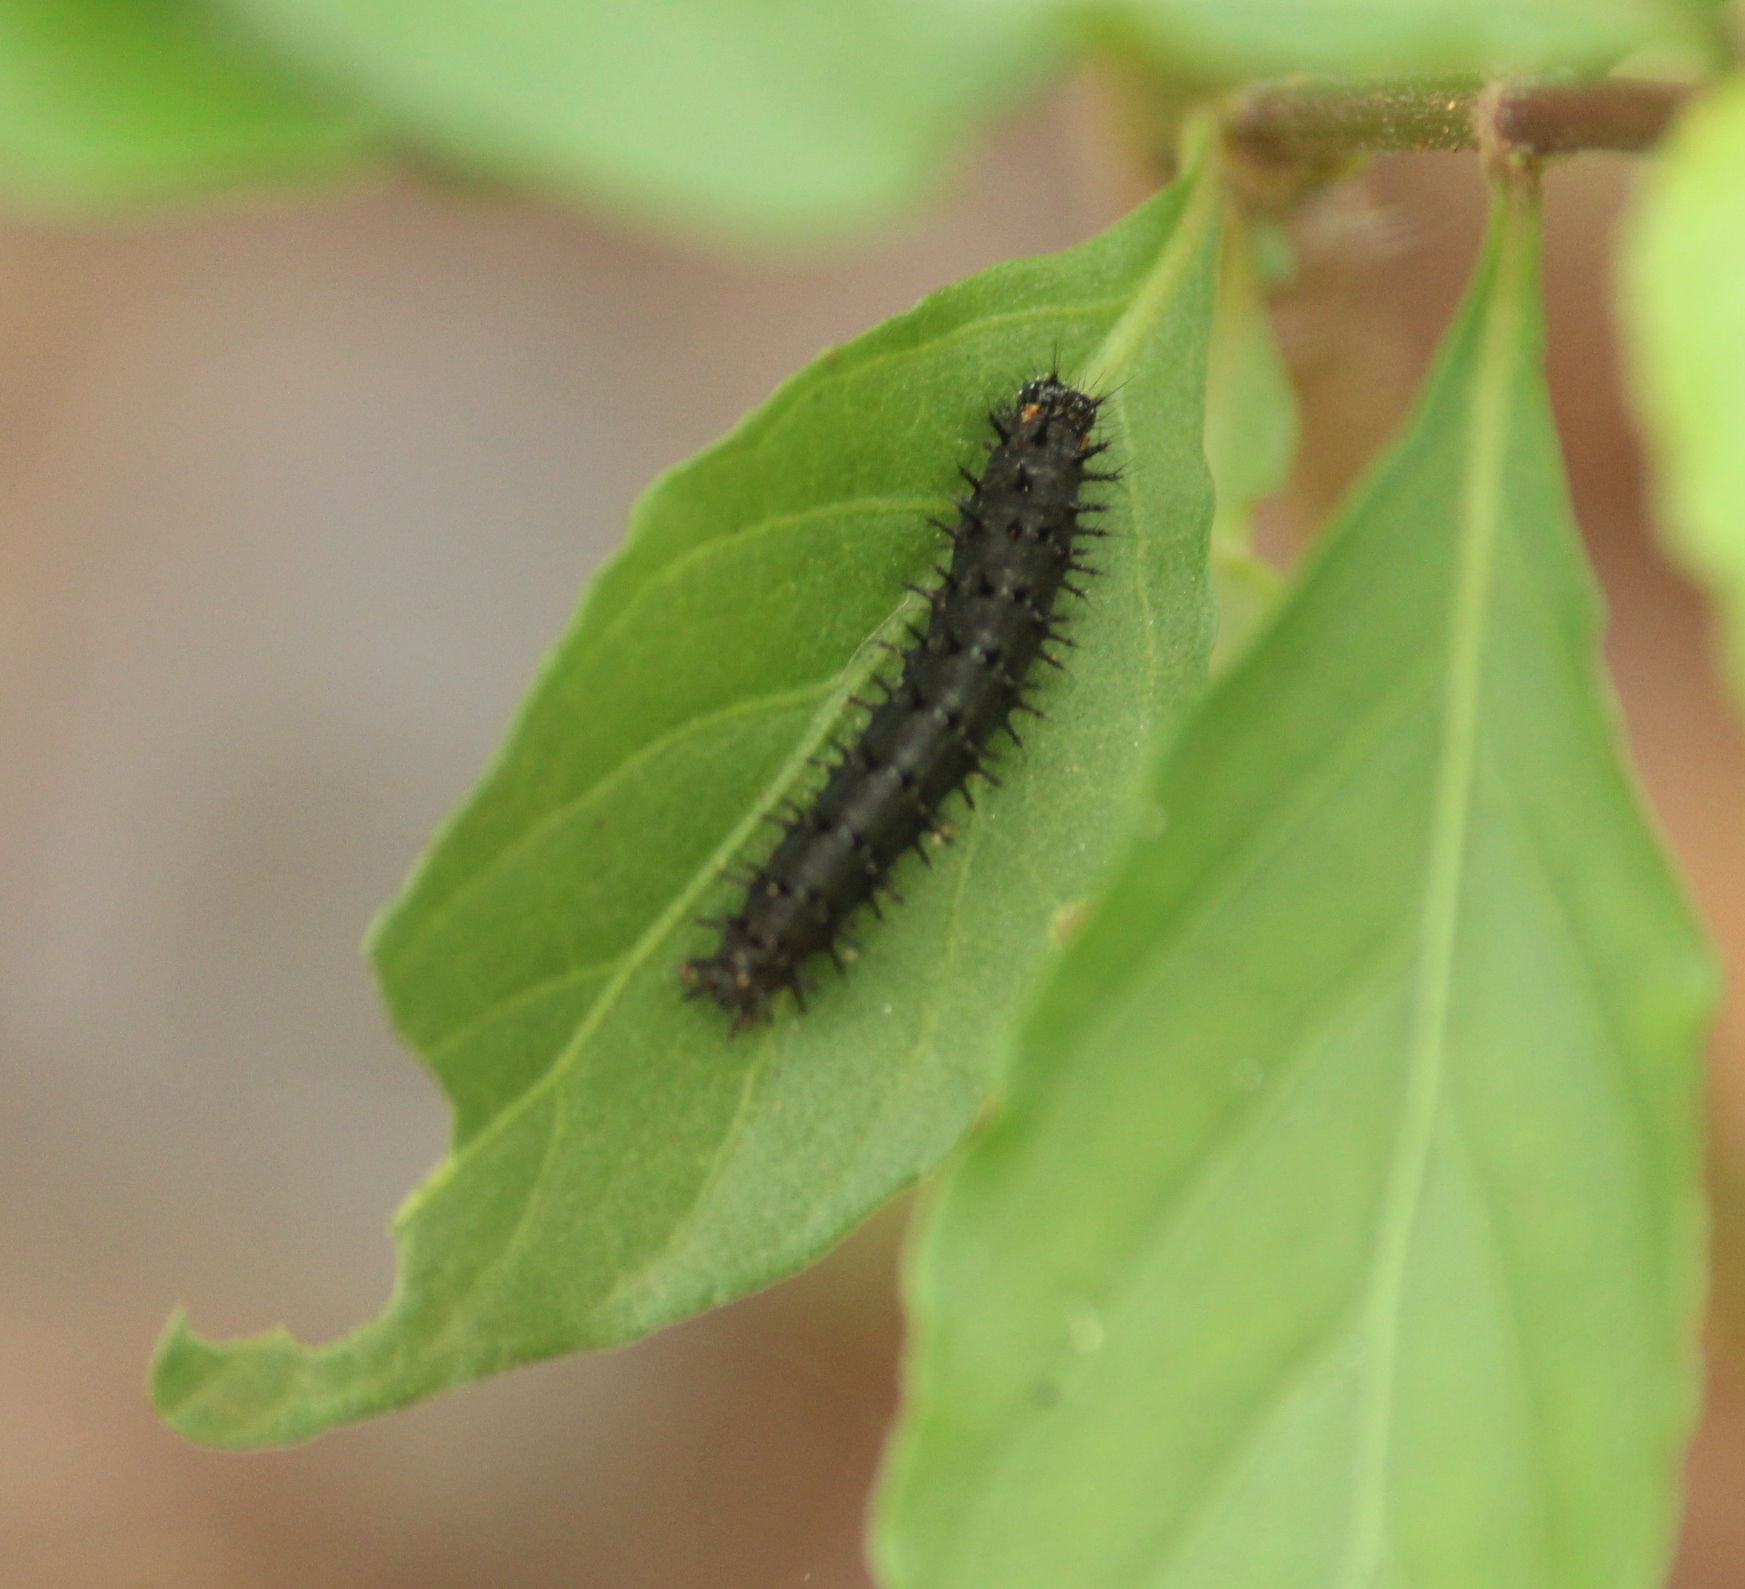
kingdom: Animalia
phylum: Arthropoda
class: Insecta
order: Lepidoptera
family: Nymphalidae
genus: Junonia
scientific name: Junonia lemonias
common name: Lemon pansy
